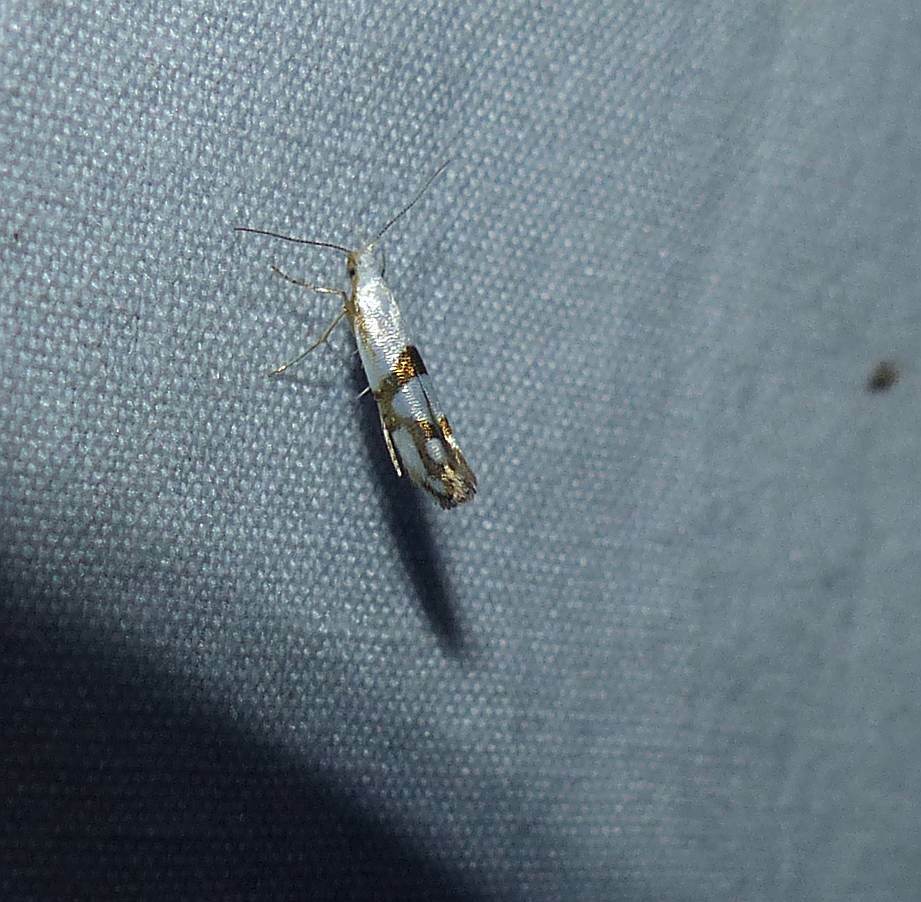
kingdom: Animalia
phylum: Arthropoda
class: Insecta
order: Lepidoptera
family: Argyresthiidae
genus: Argyresthia
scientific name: Argyresthia oreasella
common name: Cherry shoot borer moth
